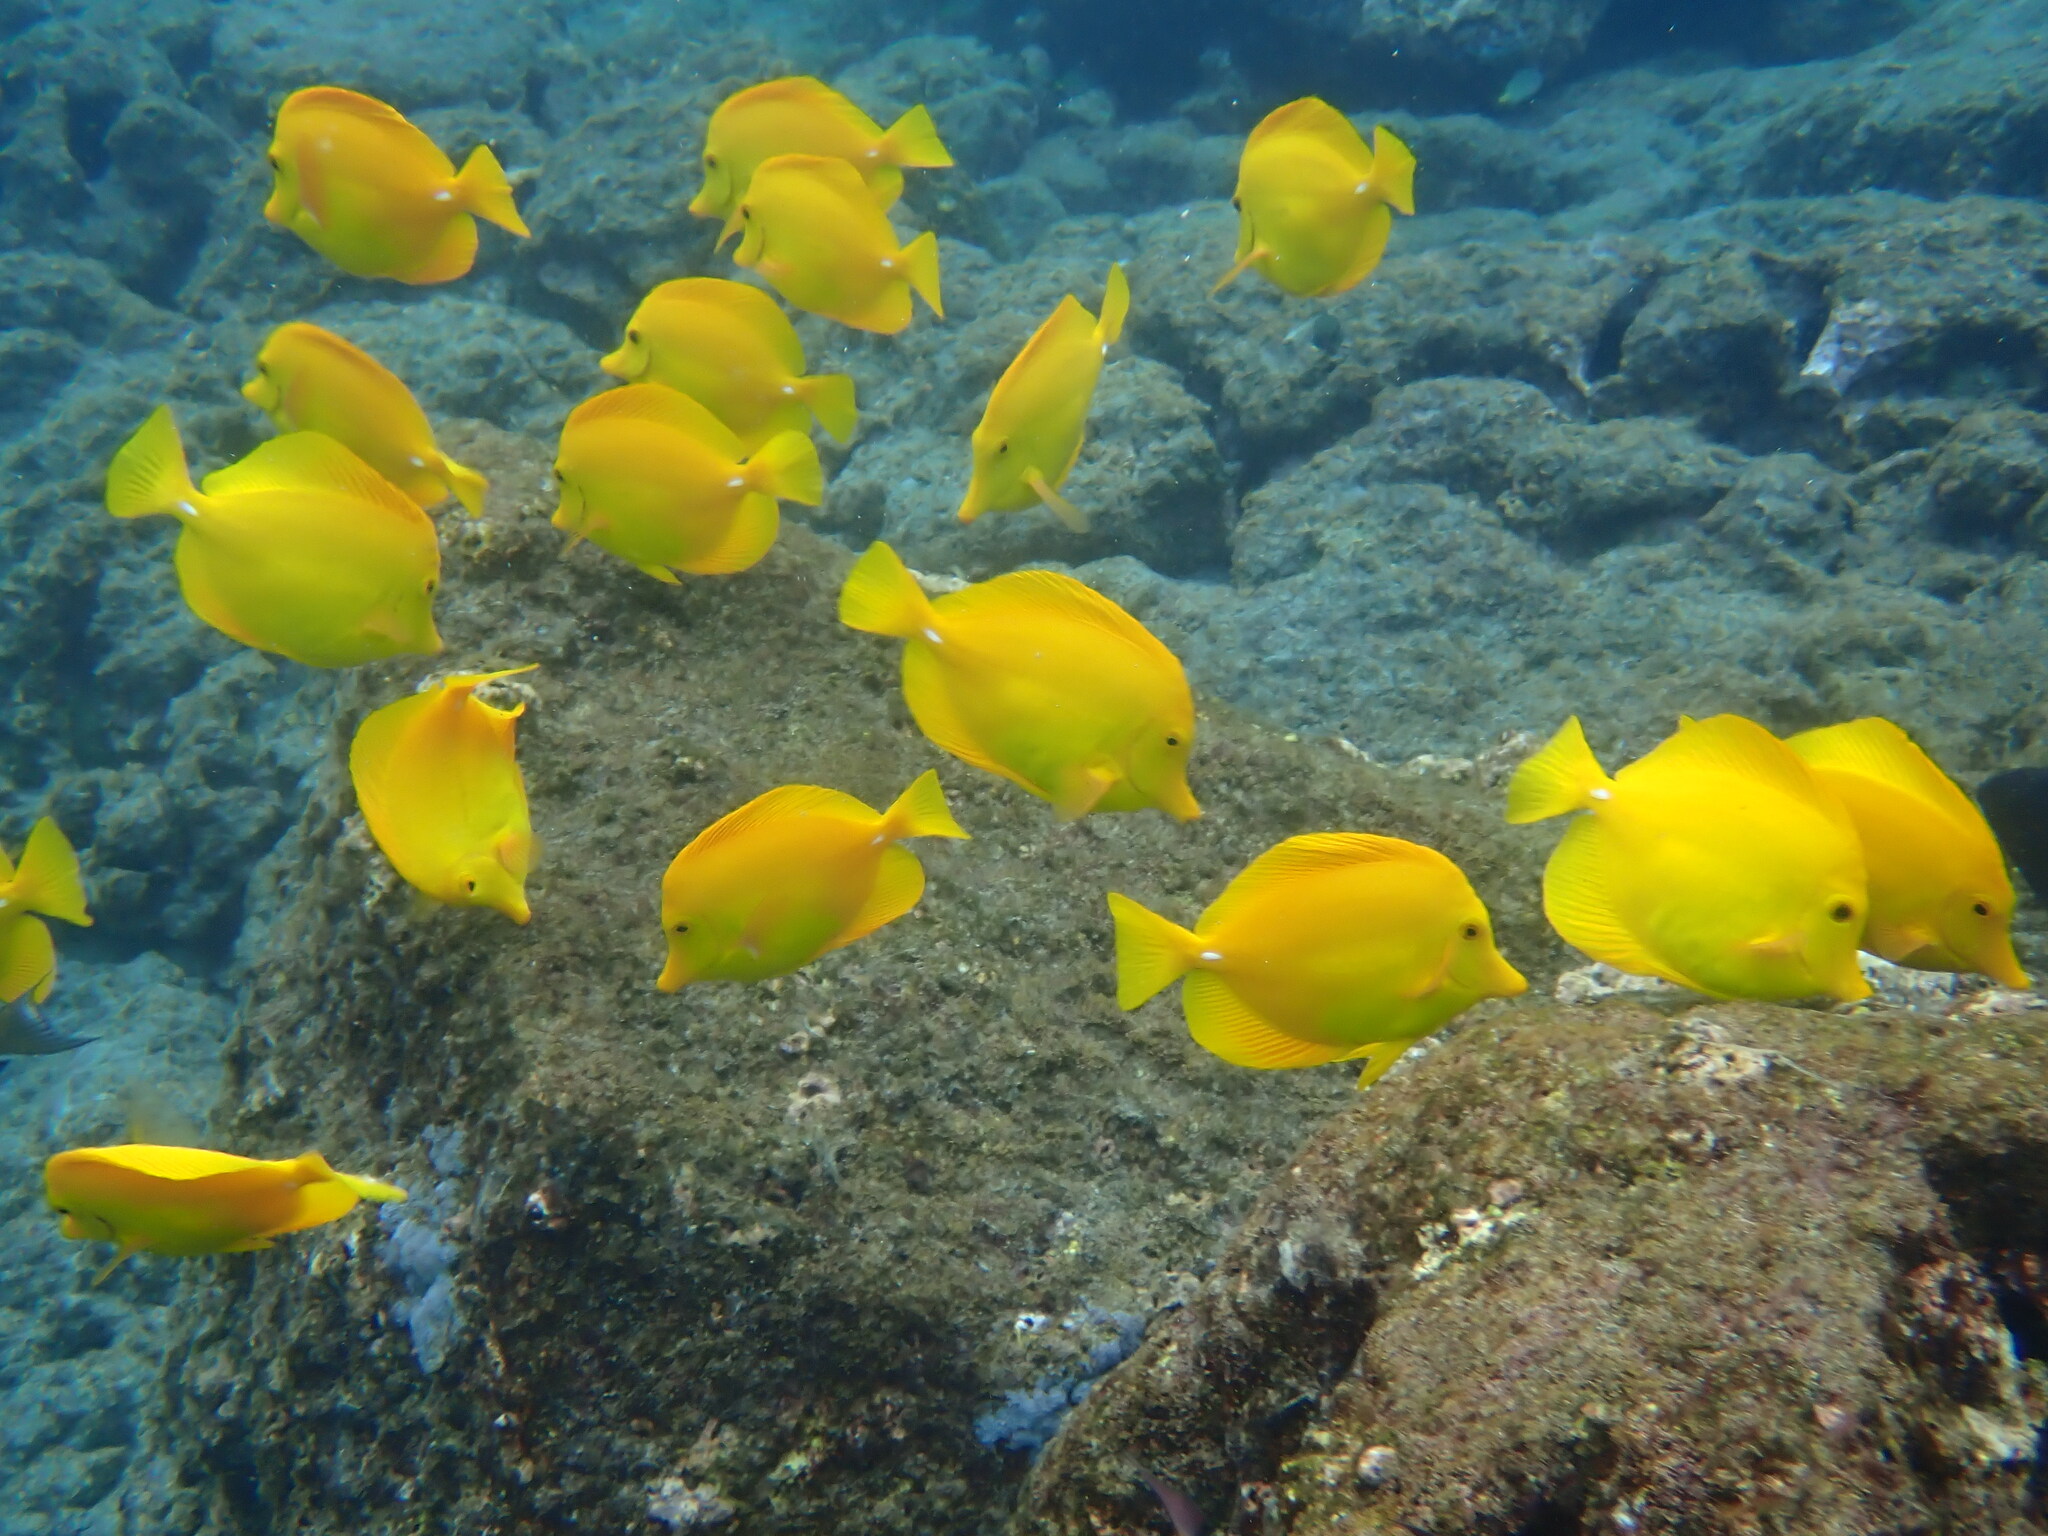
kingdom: Animalia
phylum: Chordata
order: Perciformes
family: Acanthuridae
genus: Zebrasoma
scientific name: Zebrasoma flavescens
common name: Yellow tang
